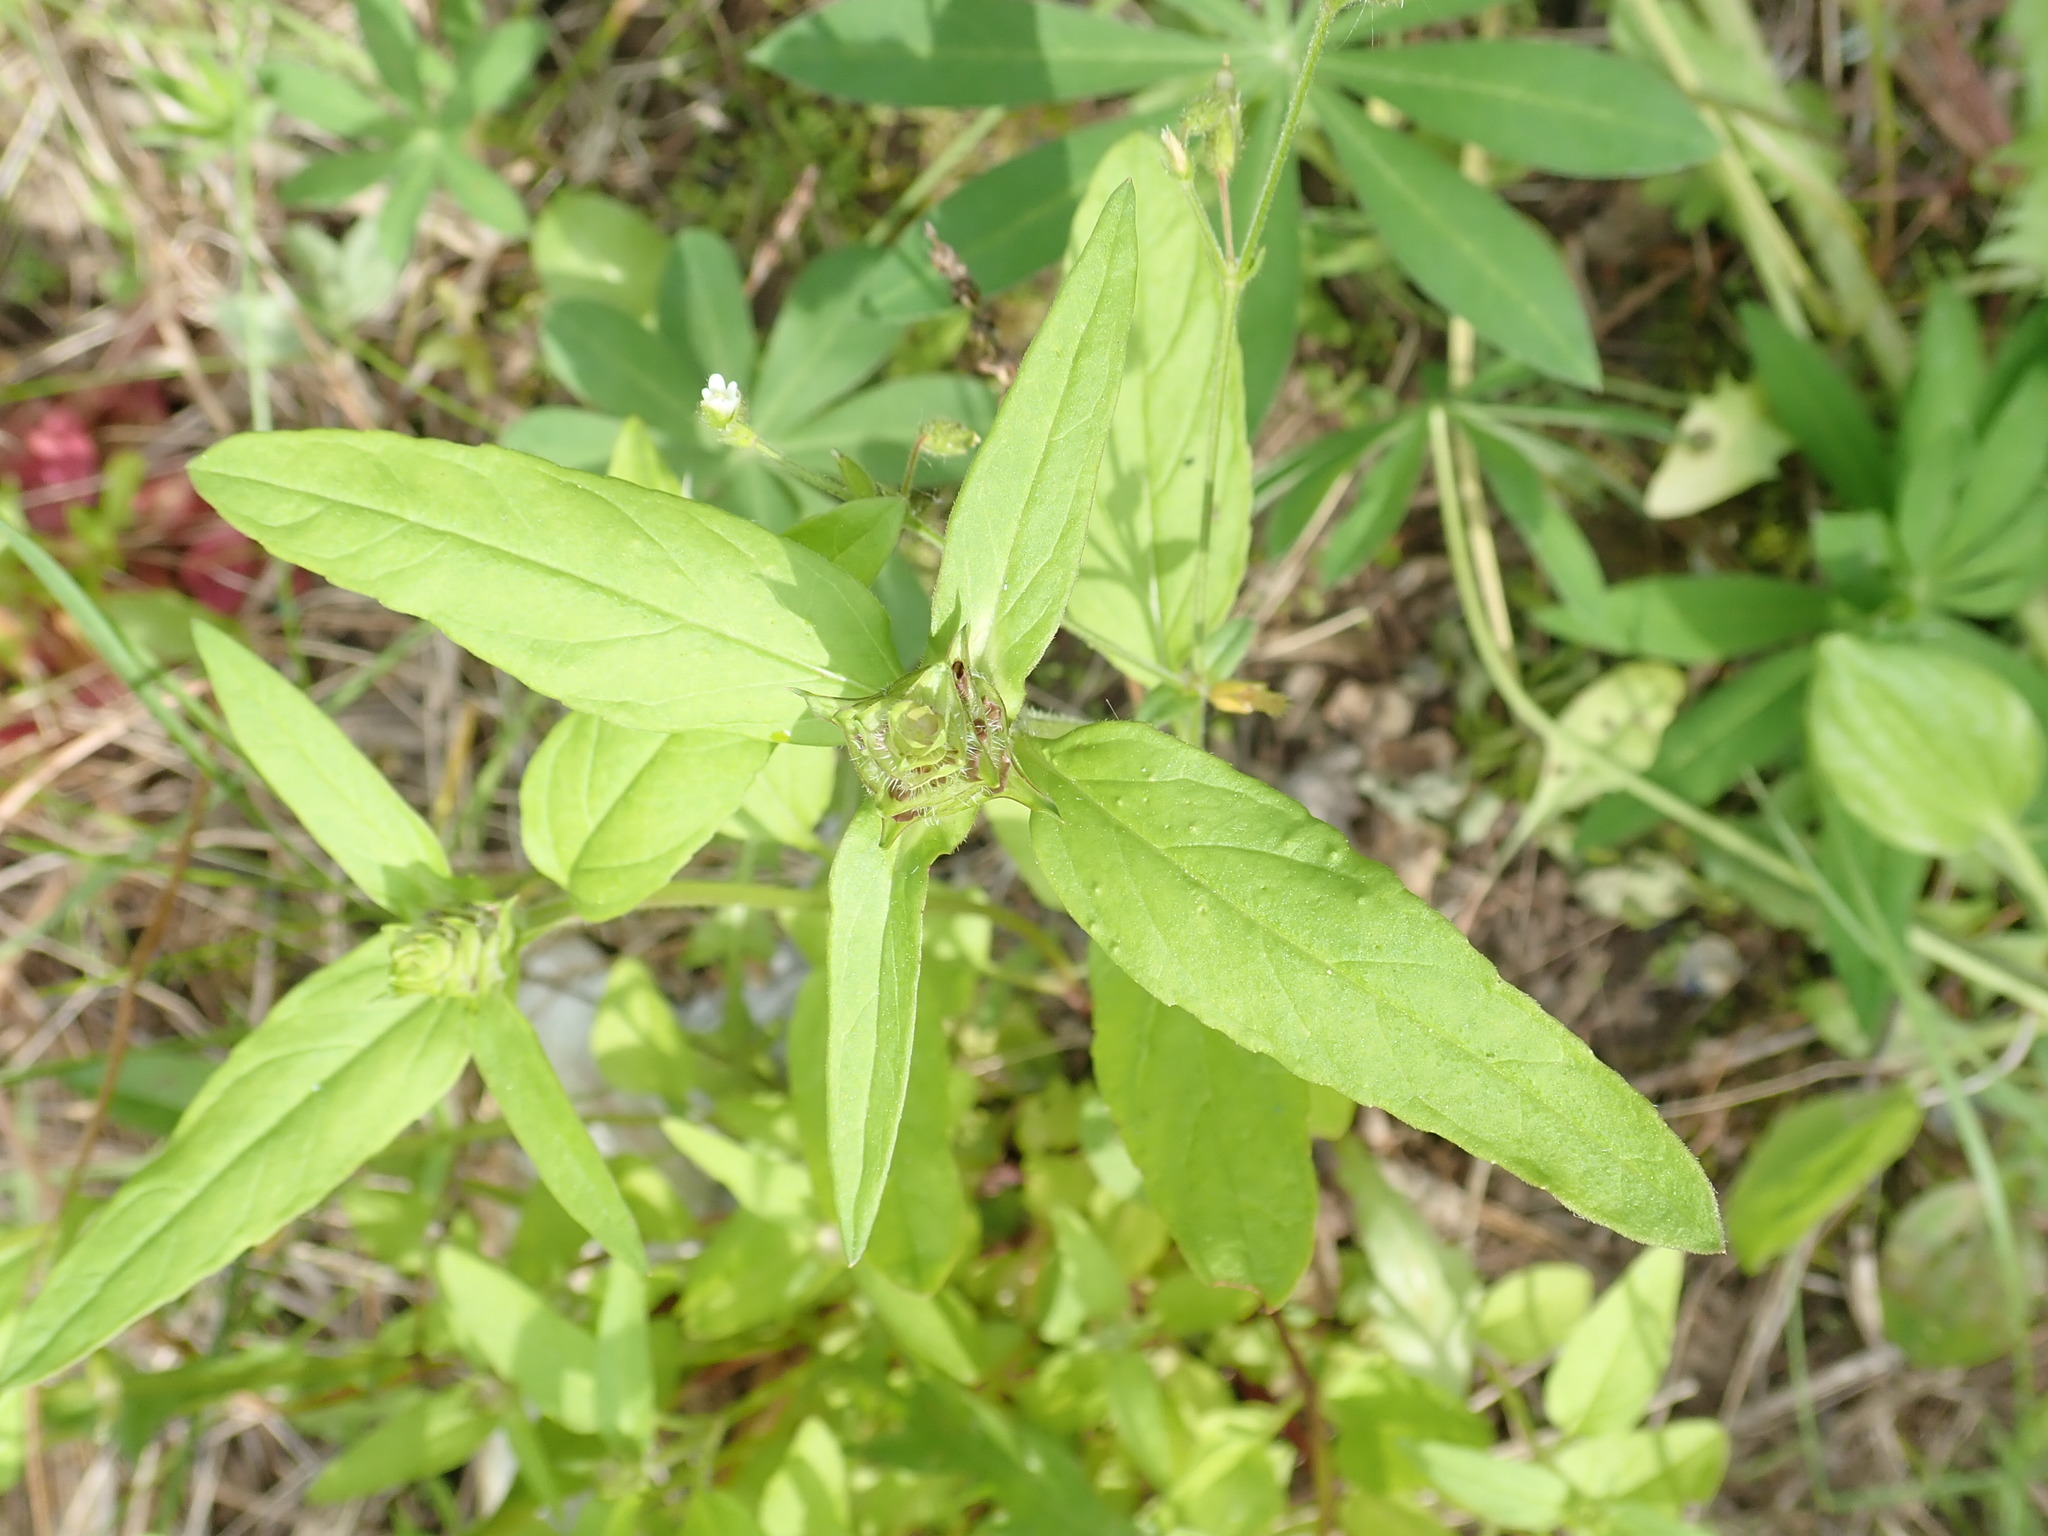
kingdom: Plantae
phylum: Tracheophyta
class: Magnoliopsida
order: Lamiales
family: Lamiaceae
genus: Prunella
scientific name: Prunella vulgaris
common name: Heal-all
